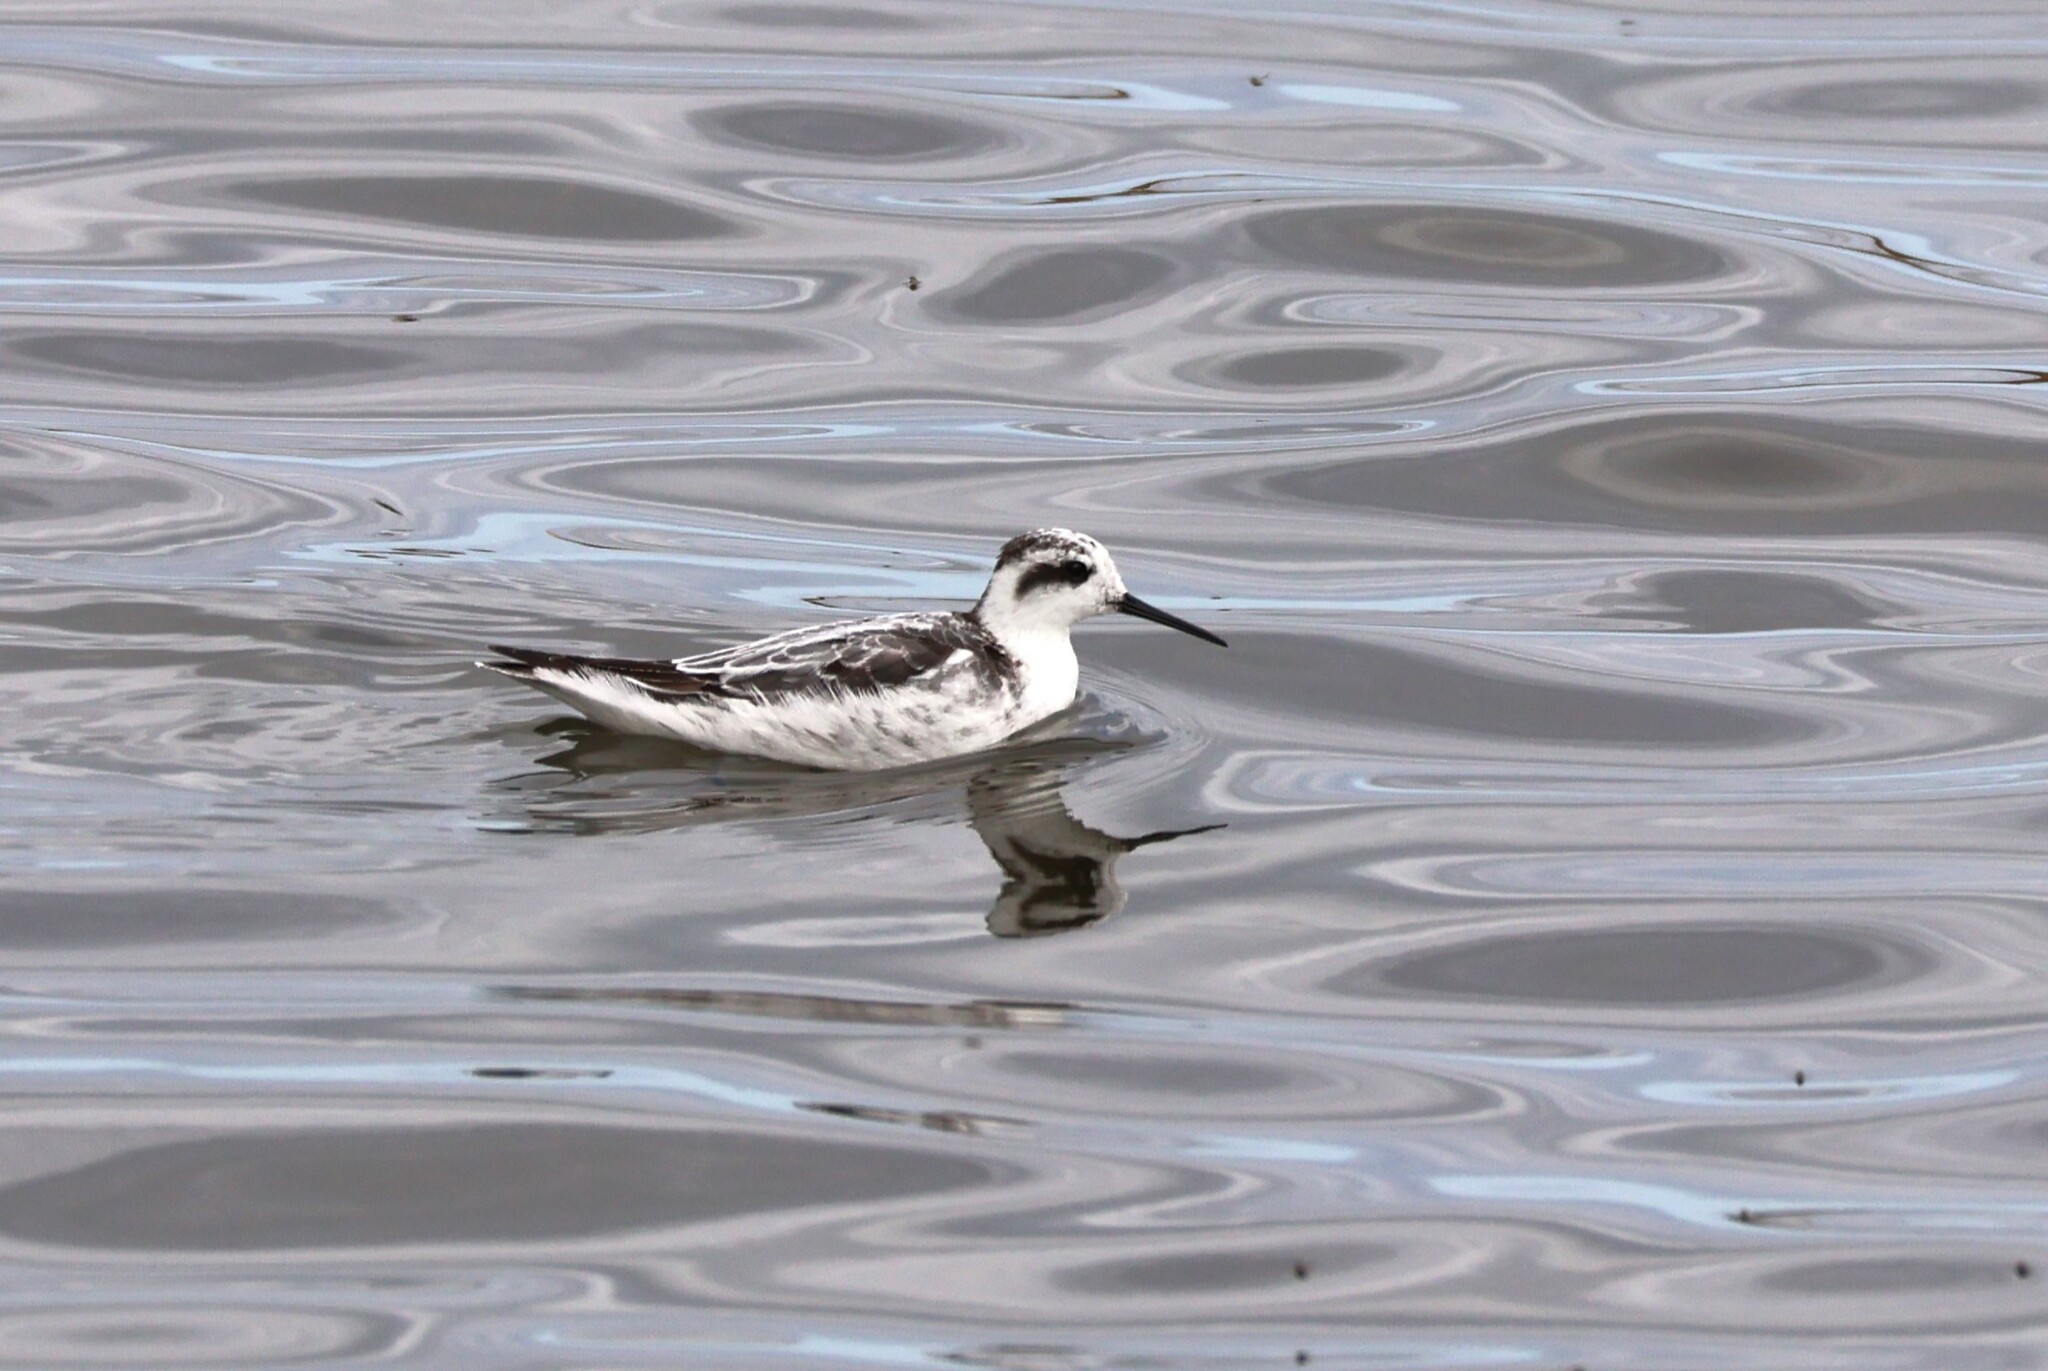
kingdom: Animalia
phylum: Chordata
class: Aves
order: Charadriiformes
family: Scolopacidae
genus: Phalaropus
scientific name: Phalaropus lobatus
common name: Red-necked phalarope
